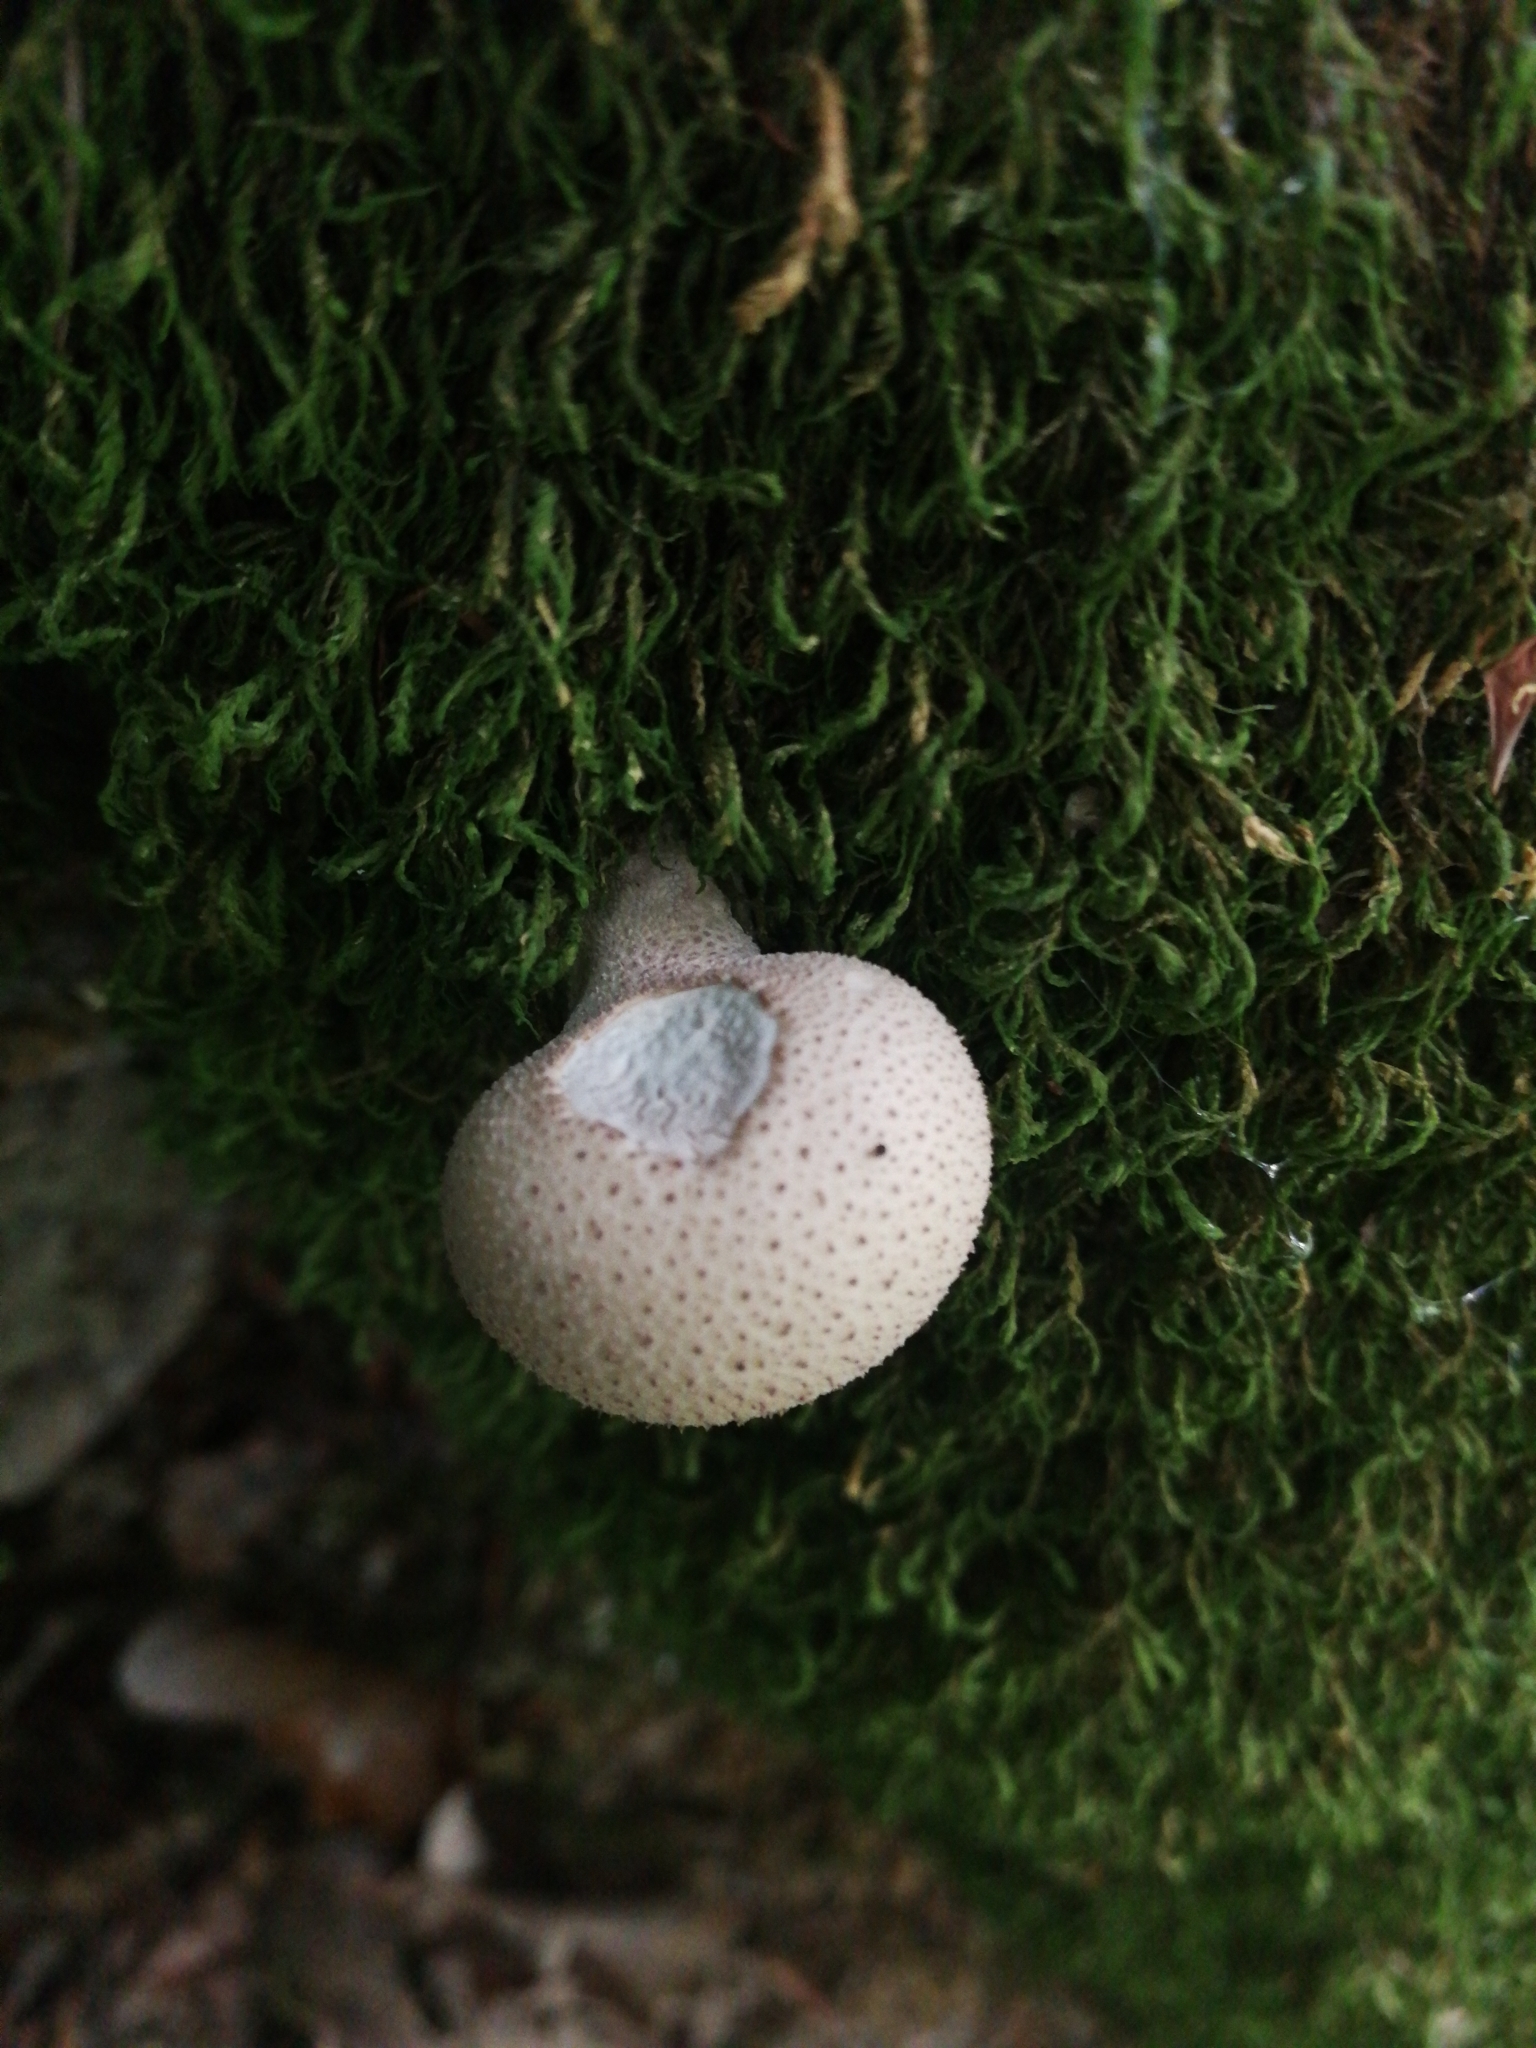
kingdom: Fungi
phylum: Basidiomycota
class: Agaricomycetes
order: Agaricales
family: Lycoperdaceae
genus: Apioperdon
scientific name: Apioperdon pyriforme
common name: Pear-shaped puffball
